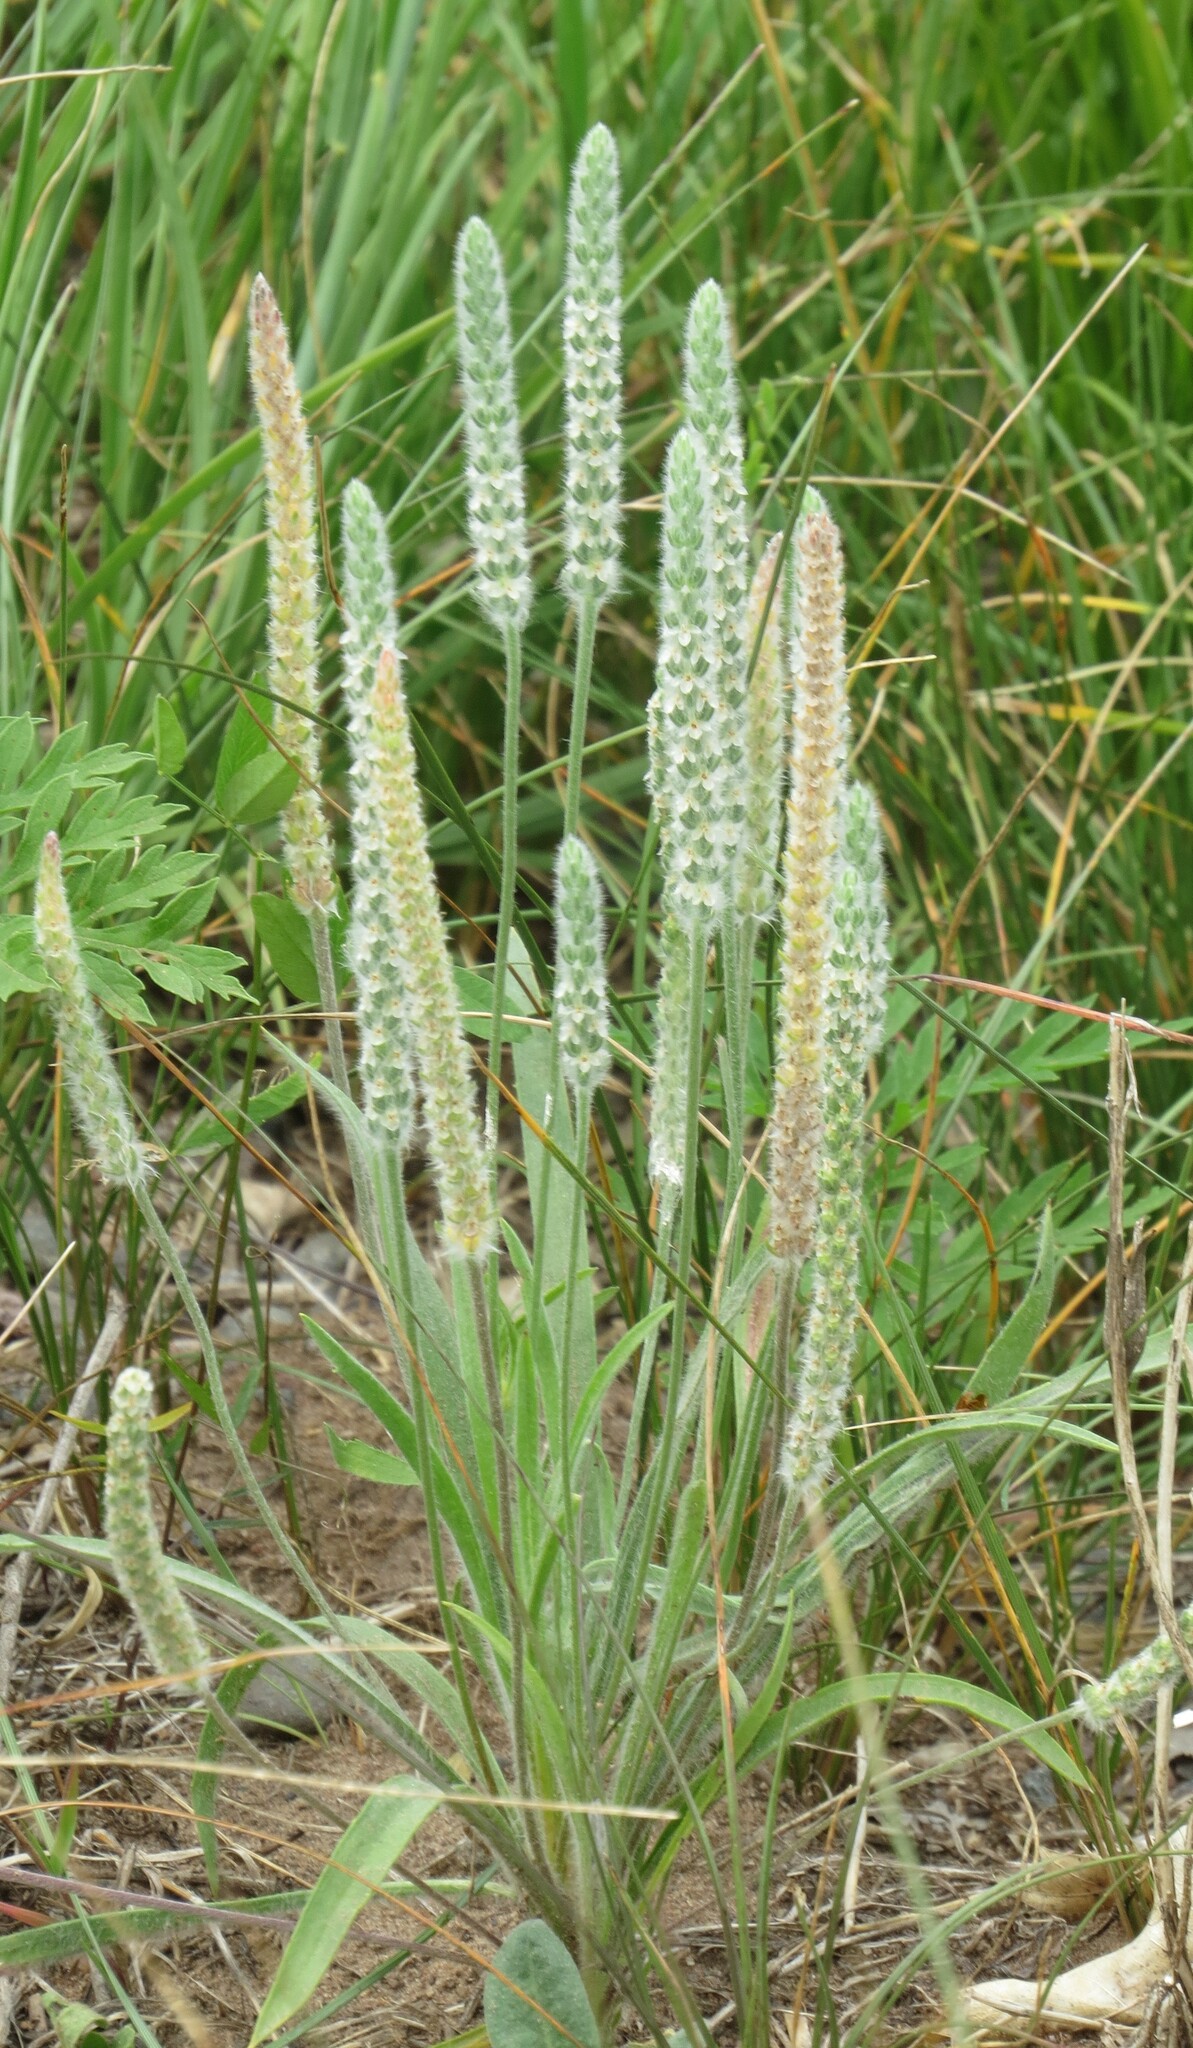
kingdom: Plantae
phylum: Tracheophyta
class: Magnoliopsida
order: Lamiales
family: Plantaginaceae
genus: Plantago
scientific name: Plantago patagonica
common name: Patagonia indian-wheat
